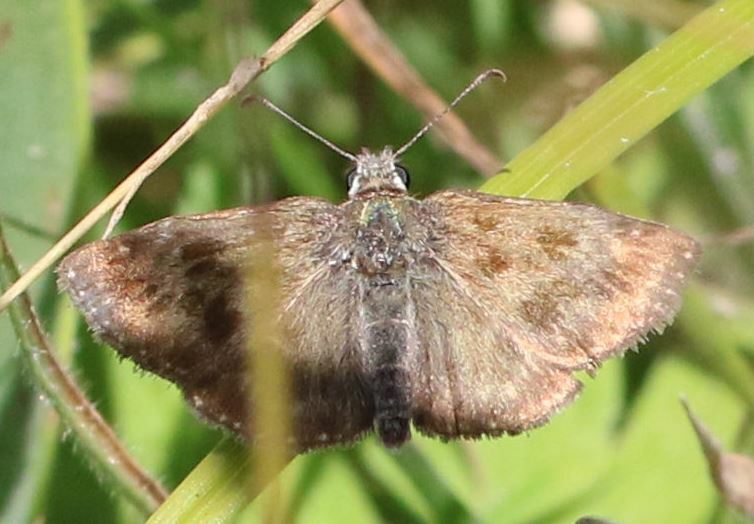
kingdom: Animalia
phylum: Arthropoda
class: Insecta
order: Lepidoptera
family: Hesperiidae
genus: Erynnis
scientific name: Erynnis tages
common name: Dingy skipper
